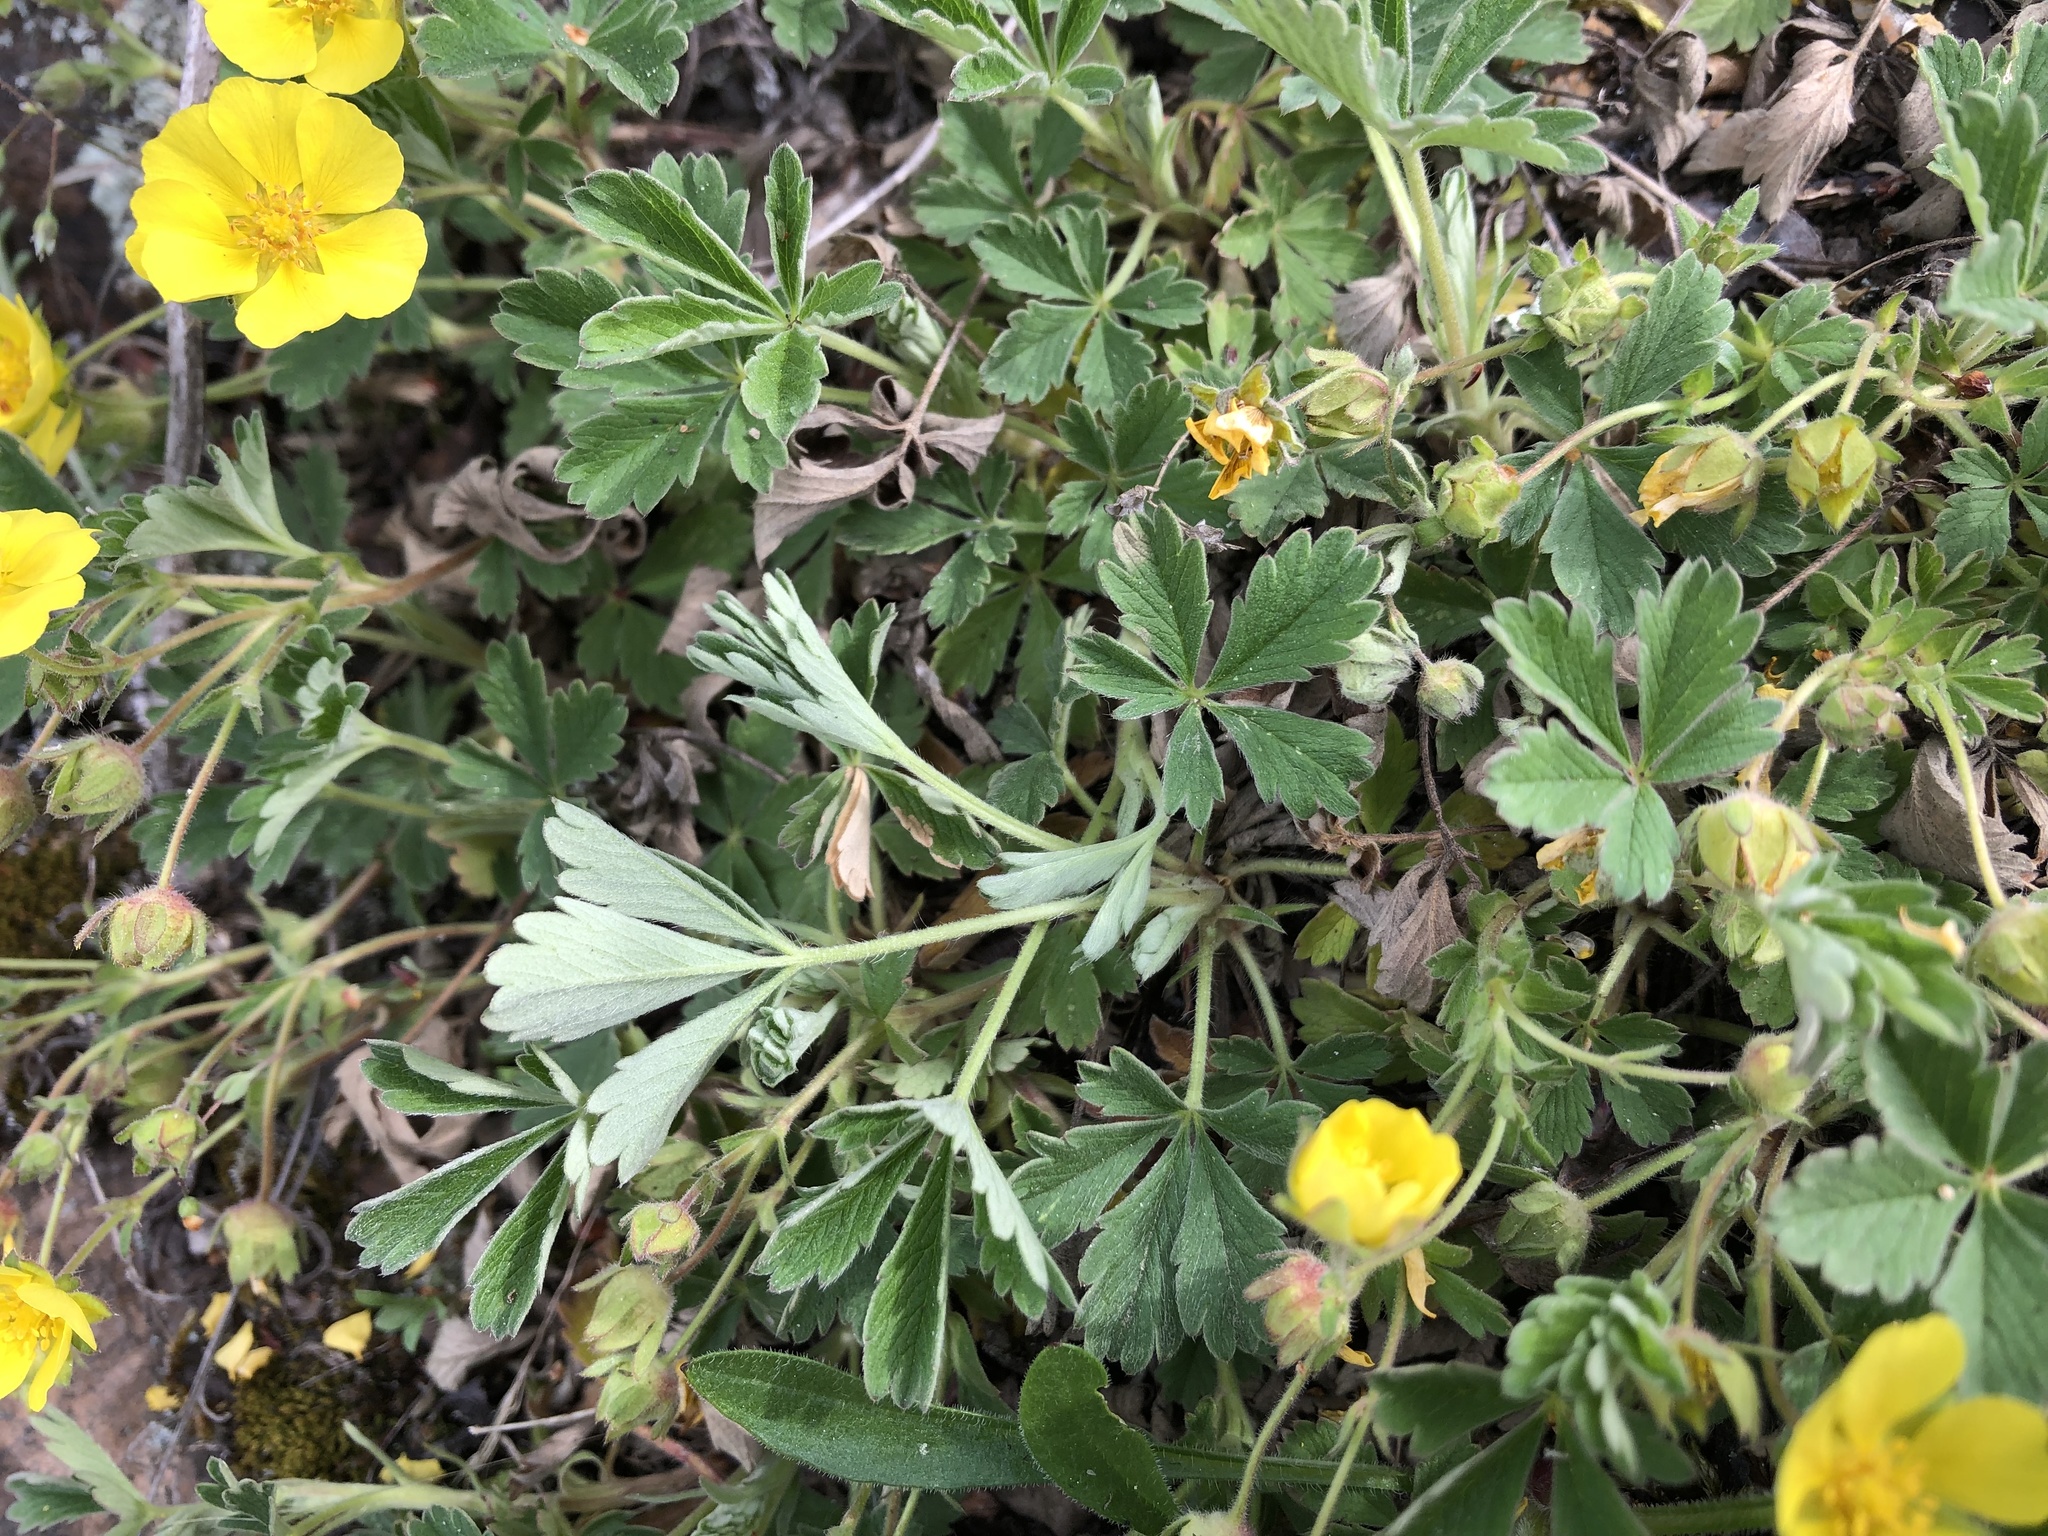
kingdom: Plantae
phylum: Tracheophyta
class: Magnoliopsida
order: Rosales
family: Rosaceae
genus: Potentilla
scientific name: Potentilla incana
